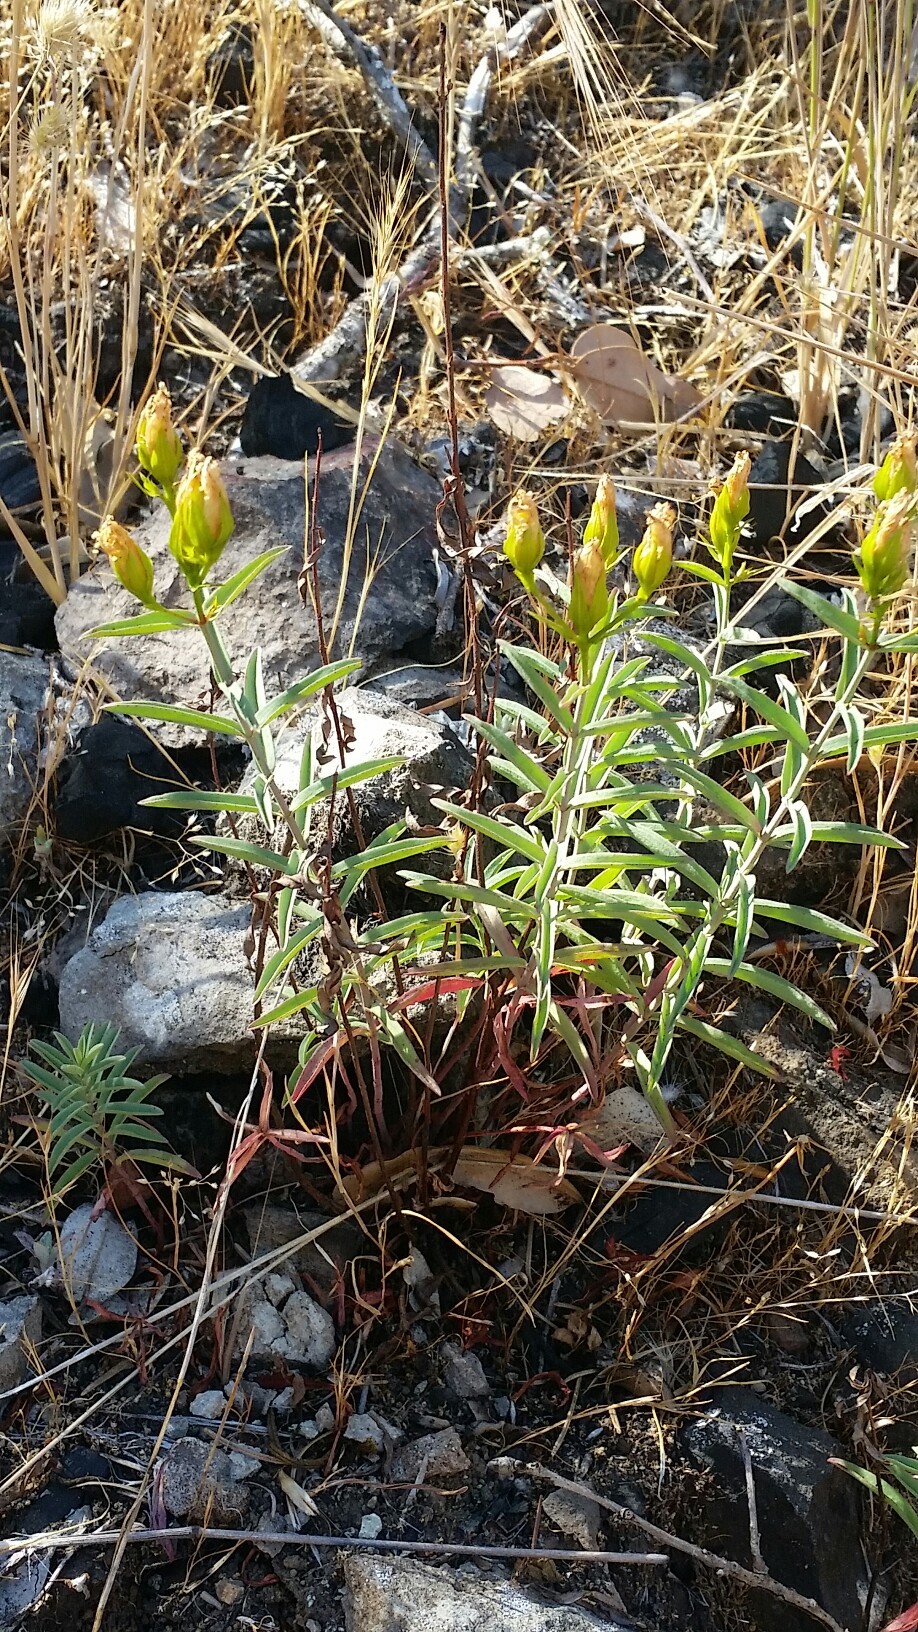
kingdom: Plantae
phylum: Tracheophyta
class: Magnoliopsida
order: Malpighiales
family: Hypericaceae
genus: Hypericum
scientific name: Hypericum concinnum
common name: Gold-wire
